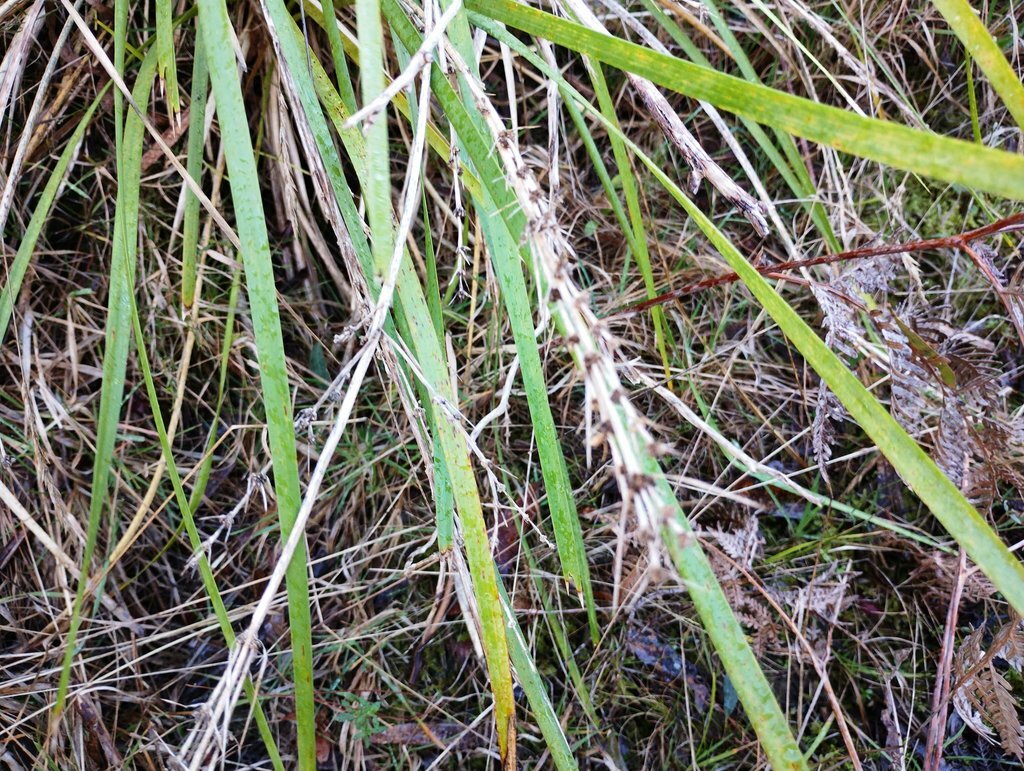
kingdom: Plantae
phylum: Tracheophyta
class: Liliopsida
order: Asparagales
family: Asparagaceae
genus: Lomandra
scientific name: Lomandra longifolia
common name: Longleaf mat-rush
